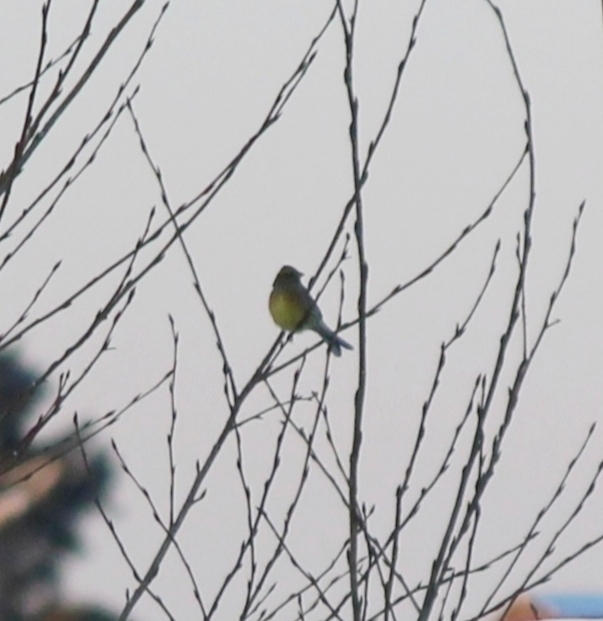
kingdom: Animalia
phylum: Chordata
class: Aves
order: Passeriformes
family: Emberizidae
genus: Emberiza
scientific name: Emberiza citrinella
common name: Yellowhammer
